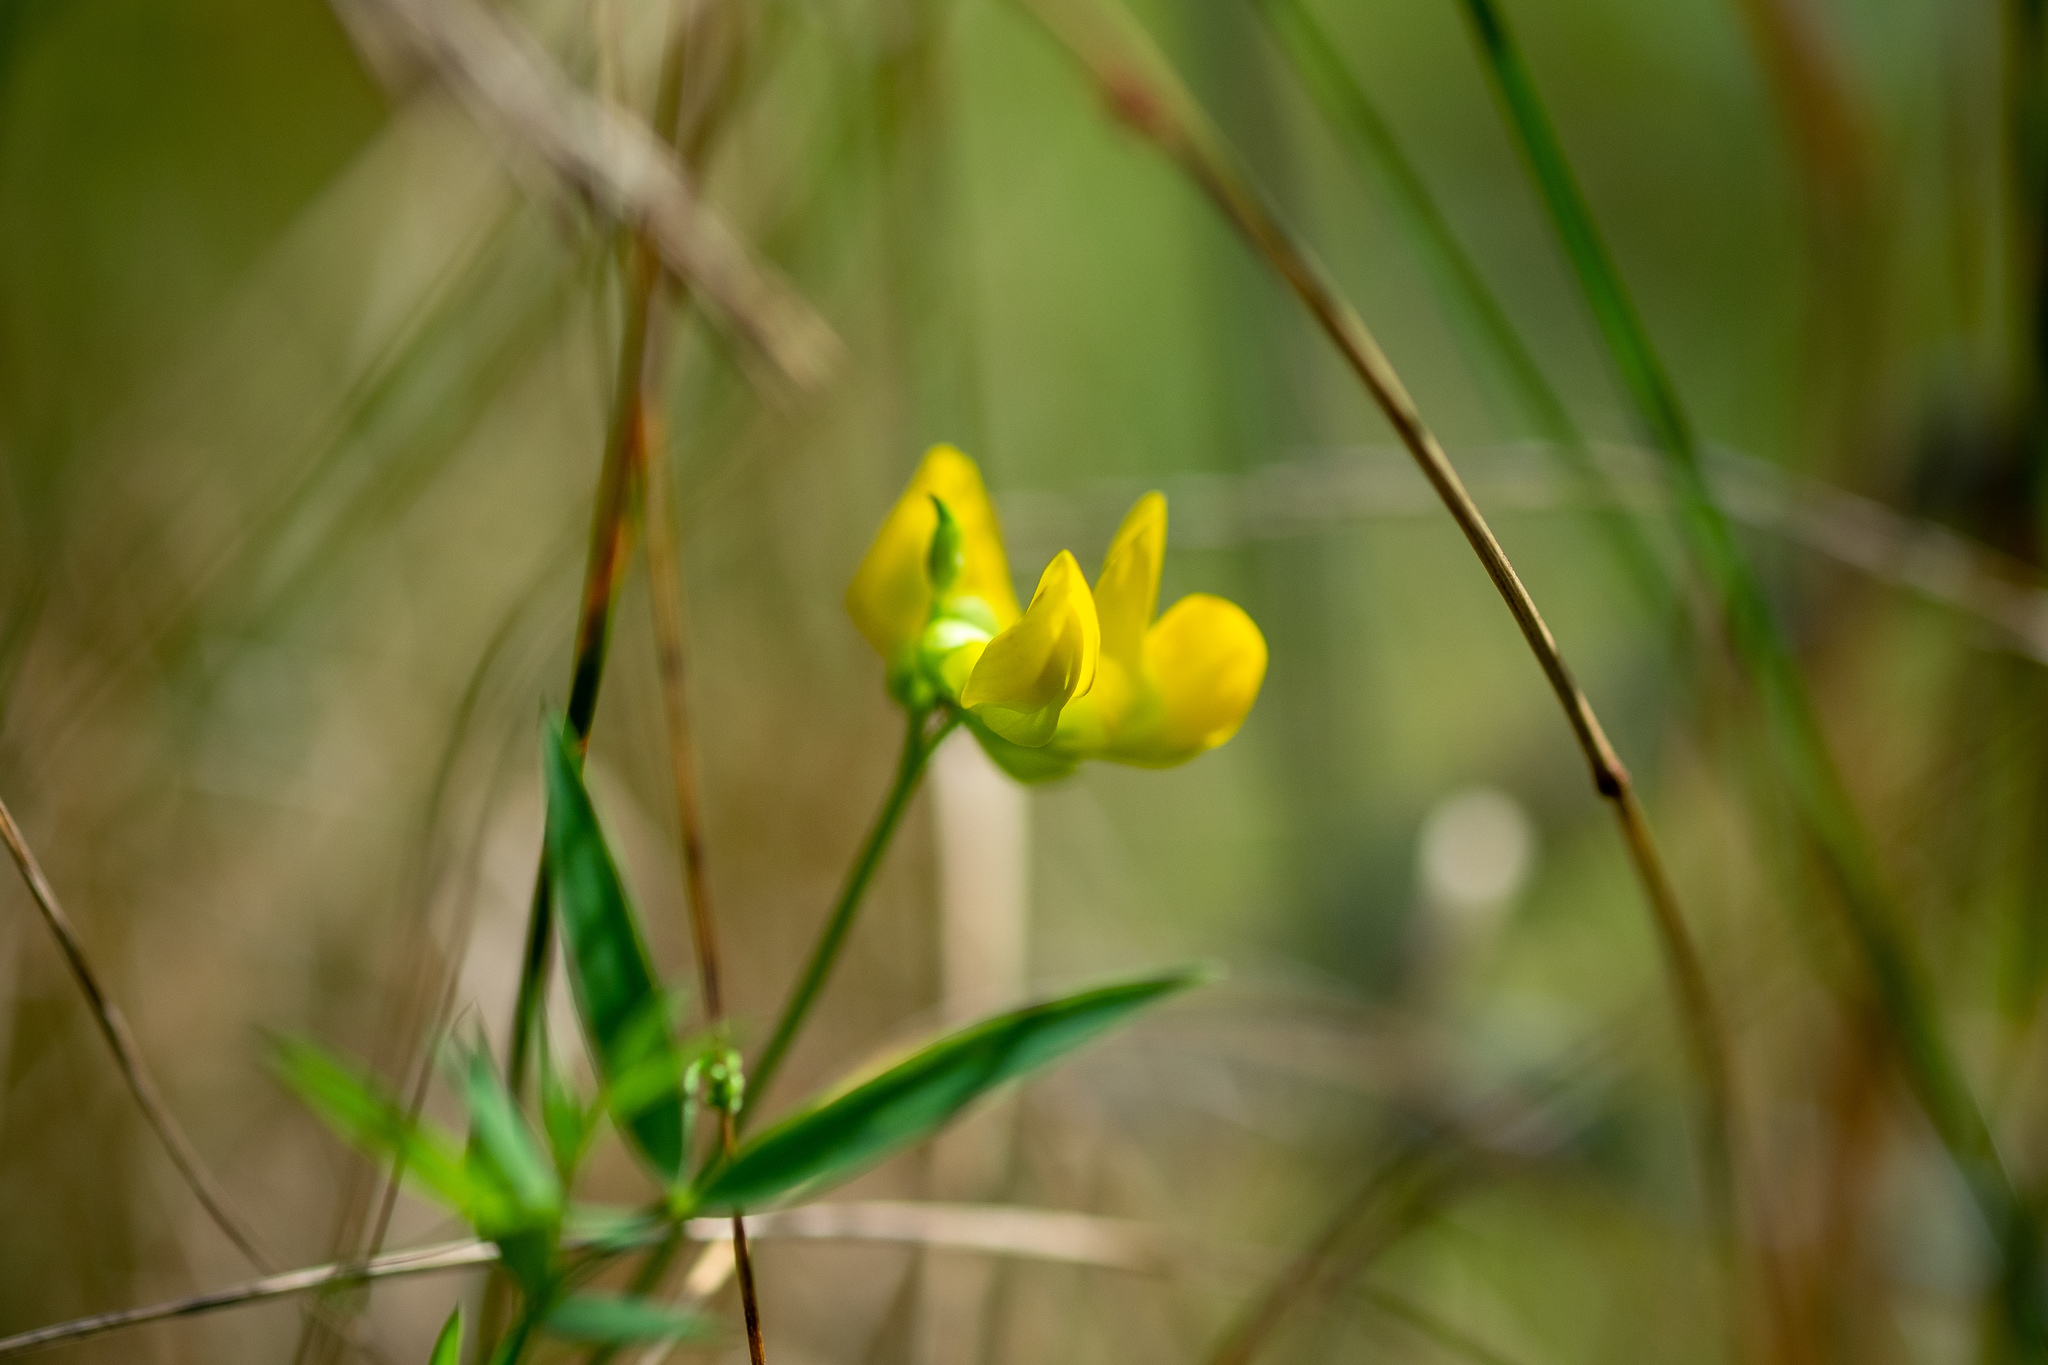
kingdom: Plantae
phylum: Tracheophyta
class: Magnoliopsida
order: Fabales
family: Fabaceae
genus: Lathyrus
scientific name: Lathyrus pratensis
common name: Meadow vetchling
